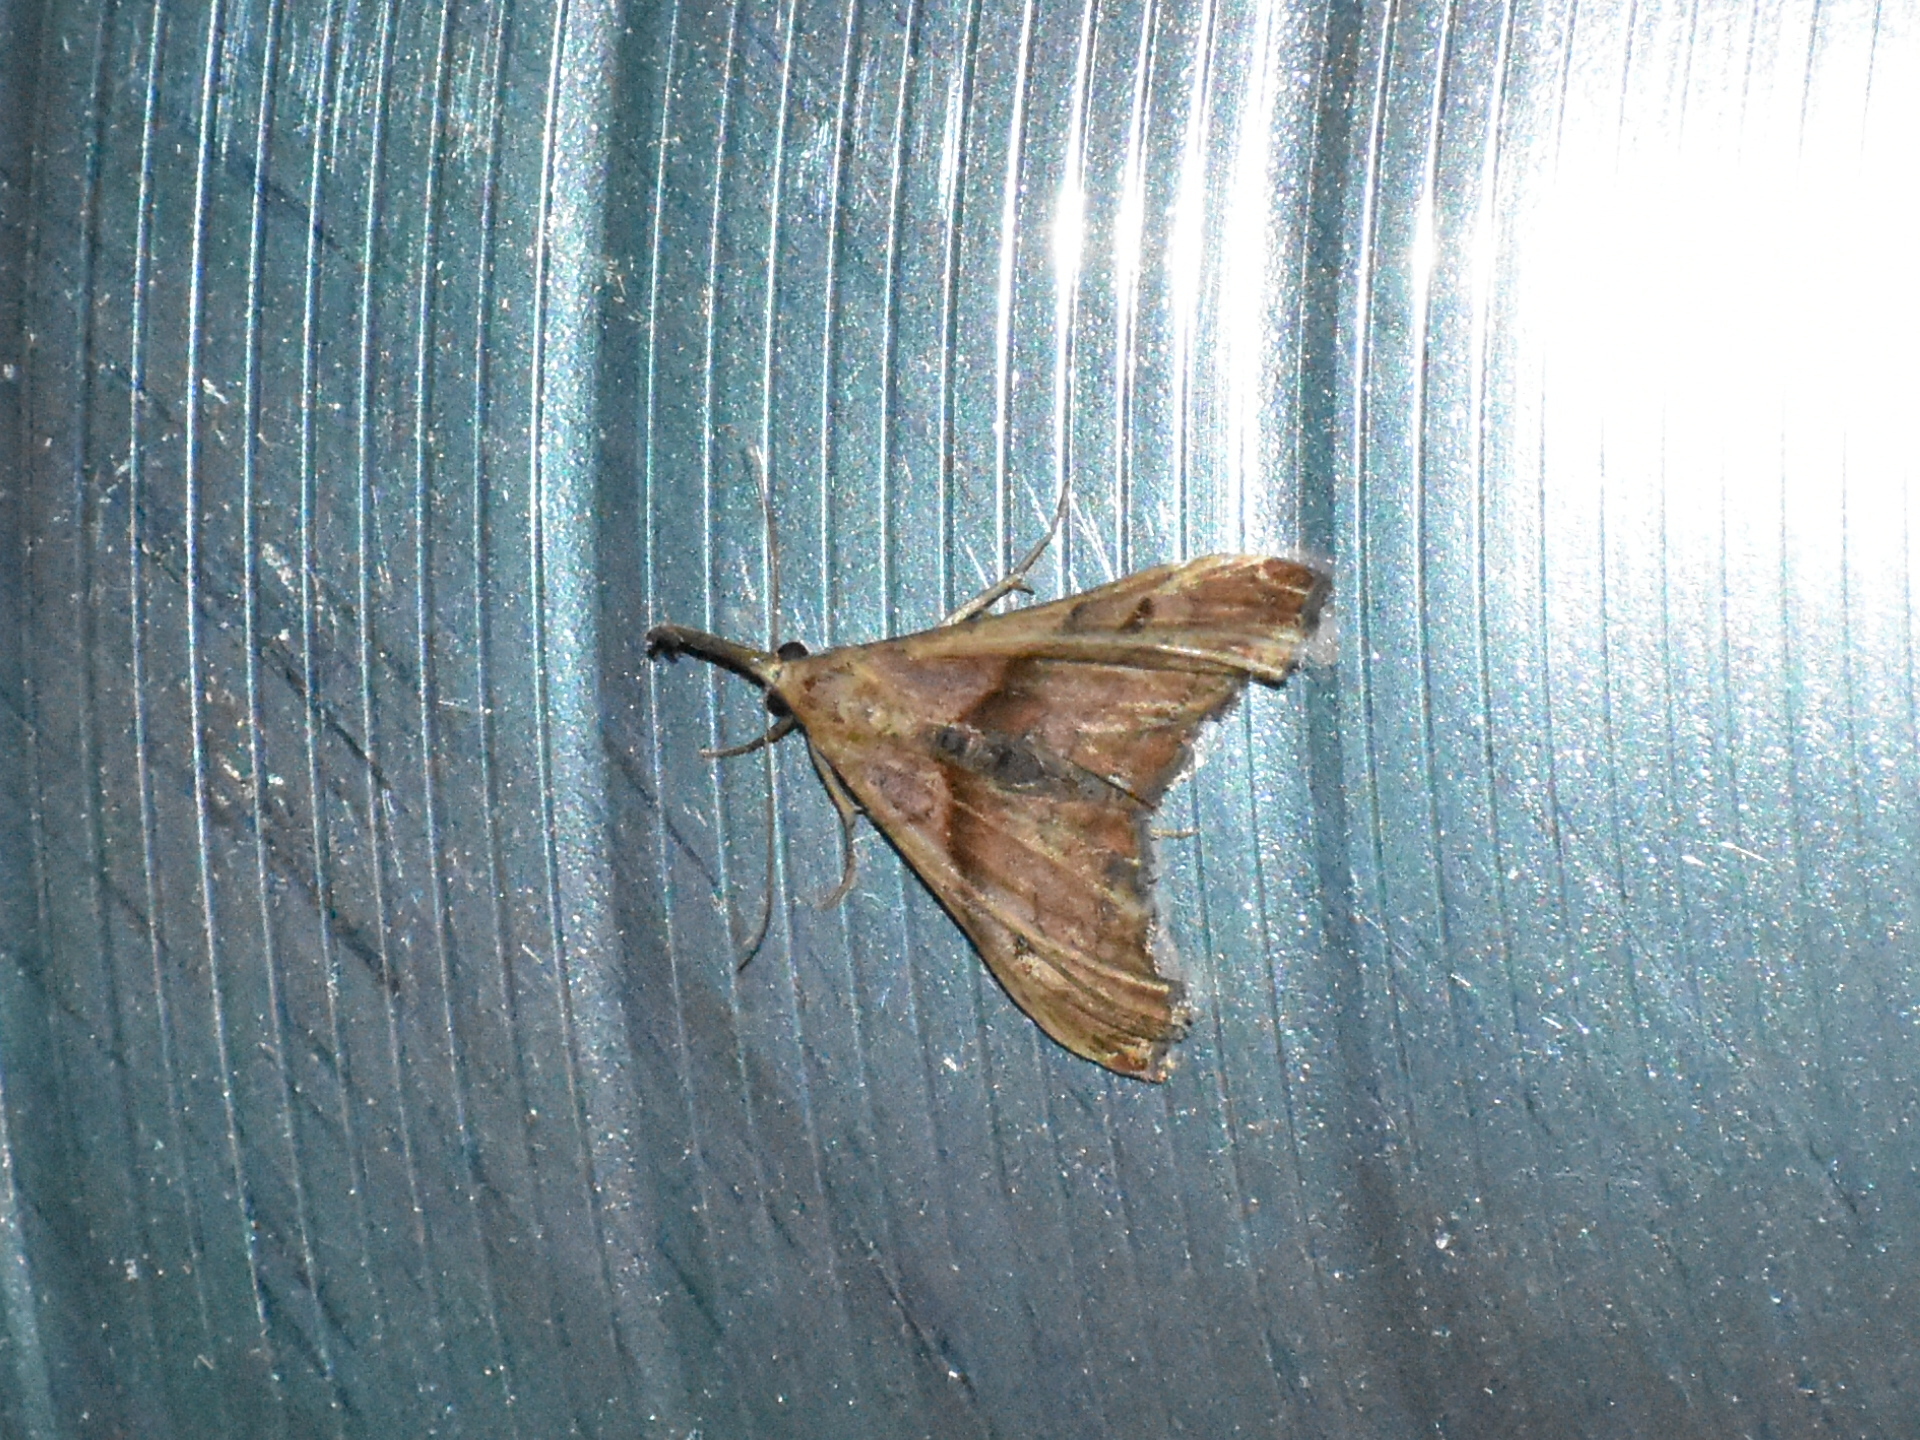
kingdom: Animalia
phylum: Arthropoda
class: Insecta
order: Lepidoptera
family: Erebidae
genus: Palthis
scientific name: Palthis angulalis
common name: Dark-spotted palthis moth
